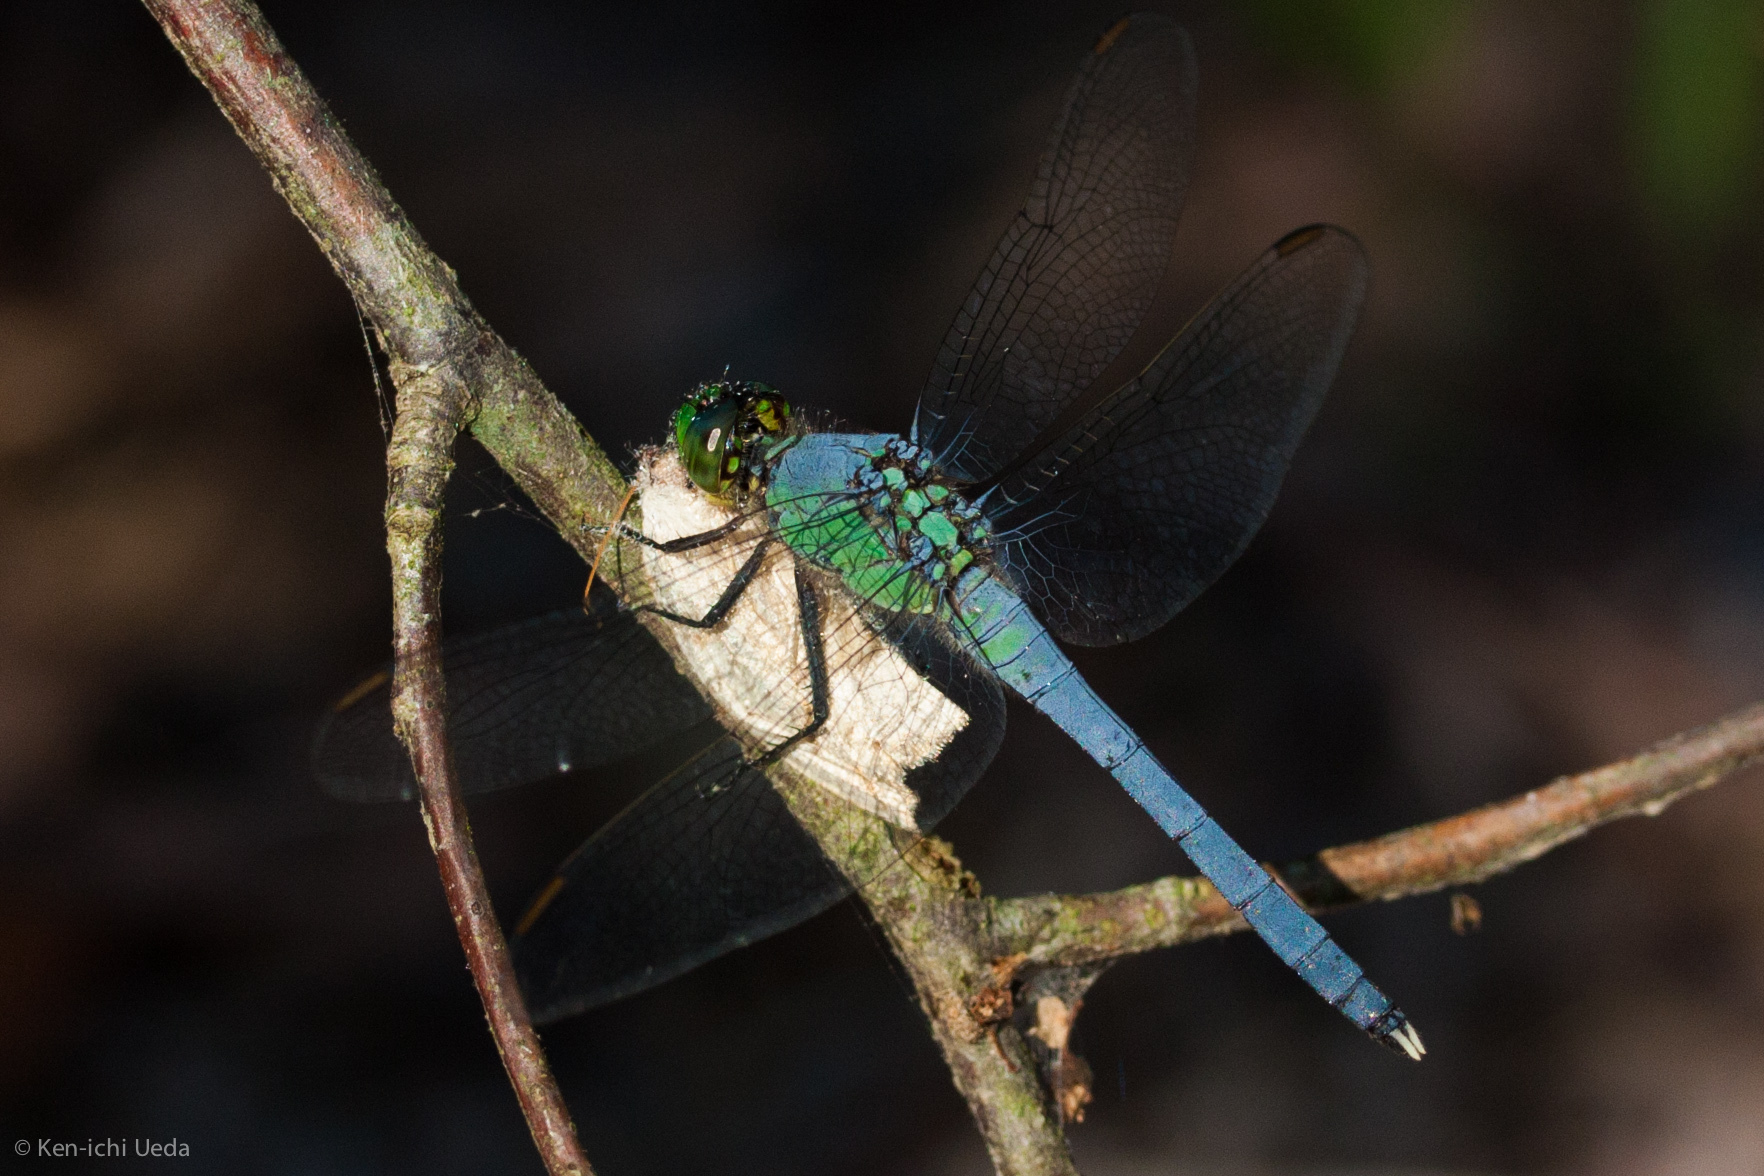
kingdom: Animalia
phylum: Arthropoda
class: Insecta
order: Odonata
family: Libellulidae
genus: Erythemis
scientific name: Erythemis simplicicollis
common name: Eastern pondhawk
